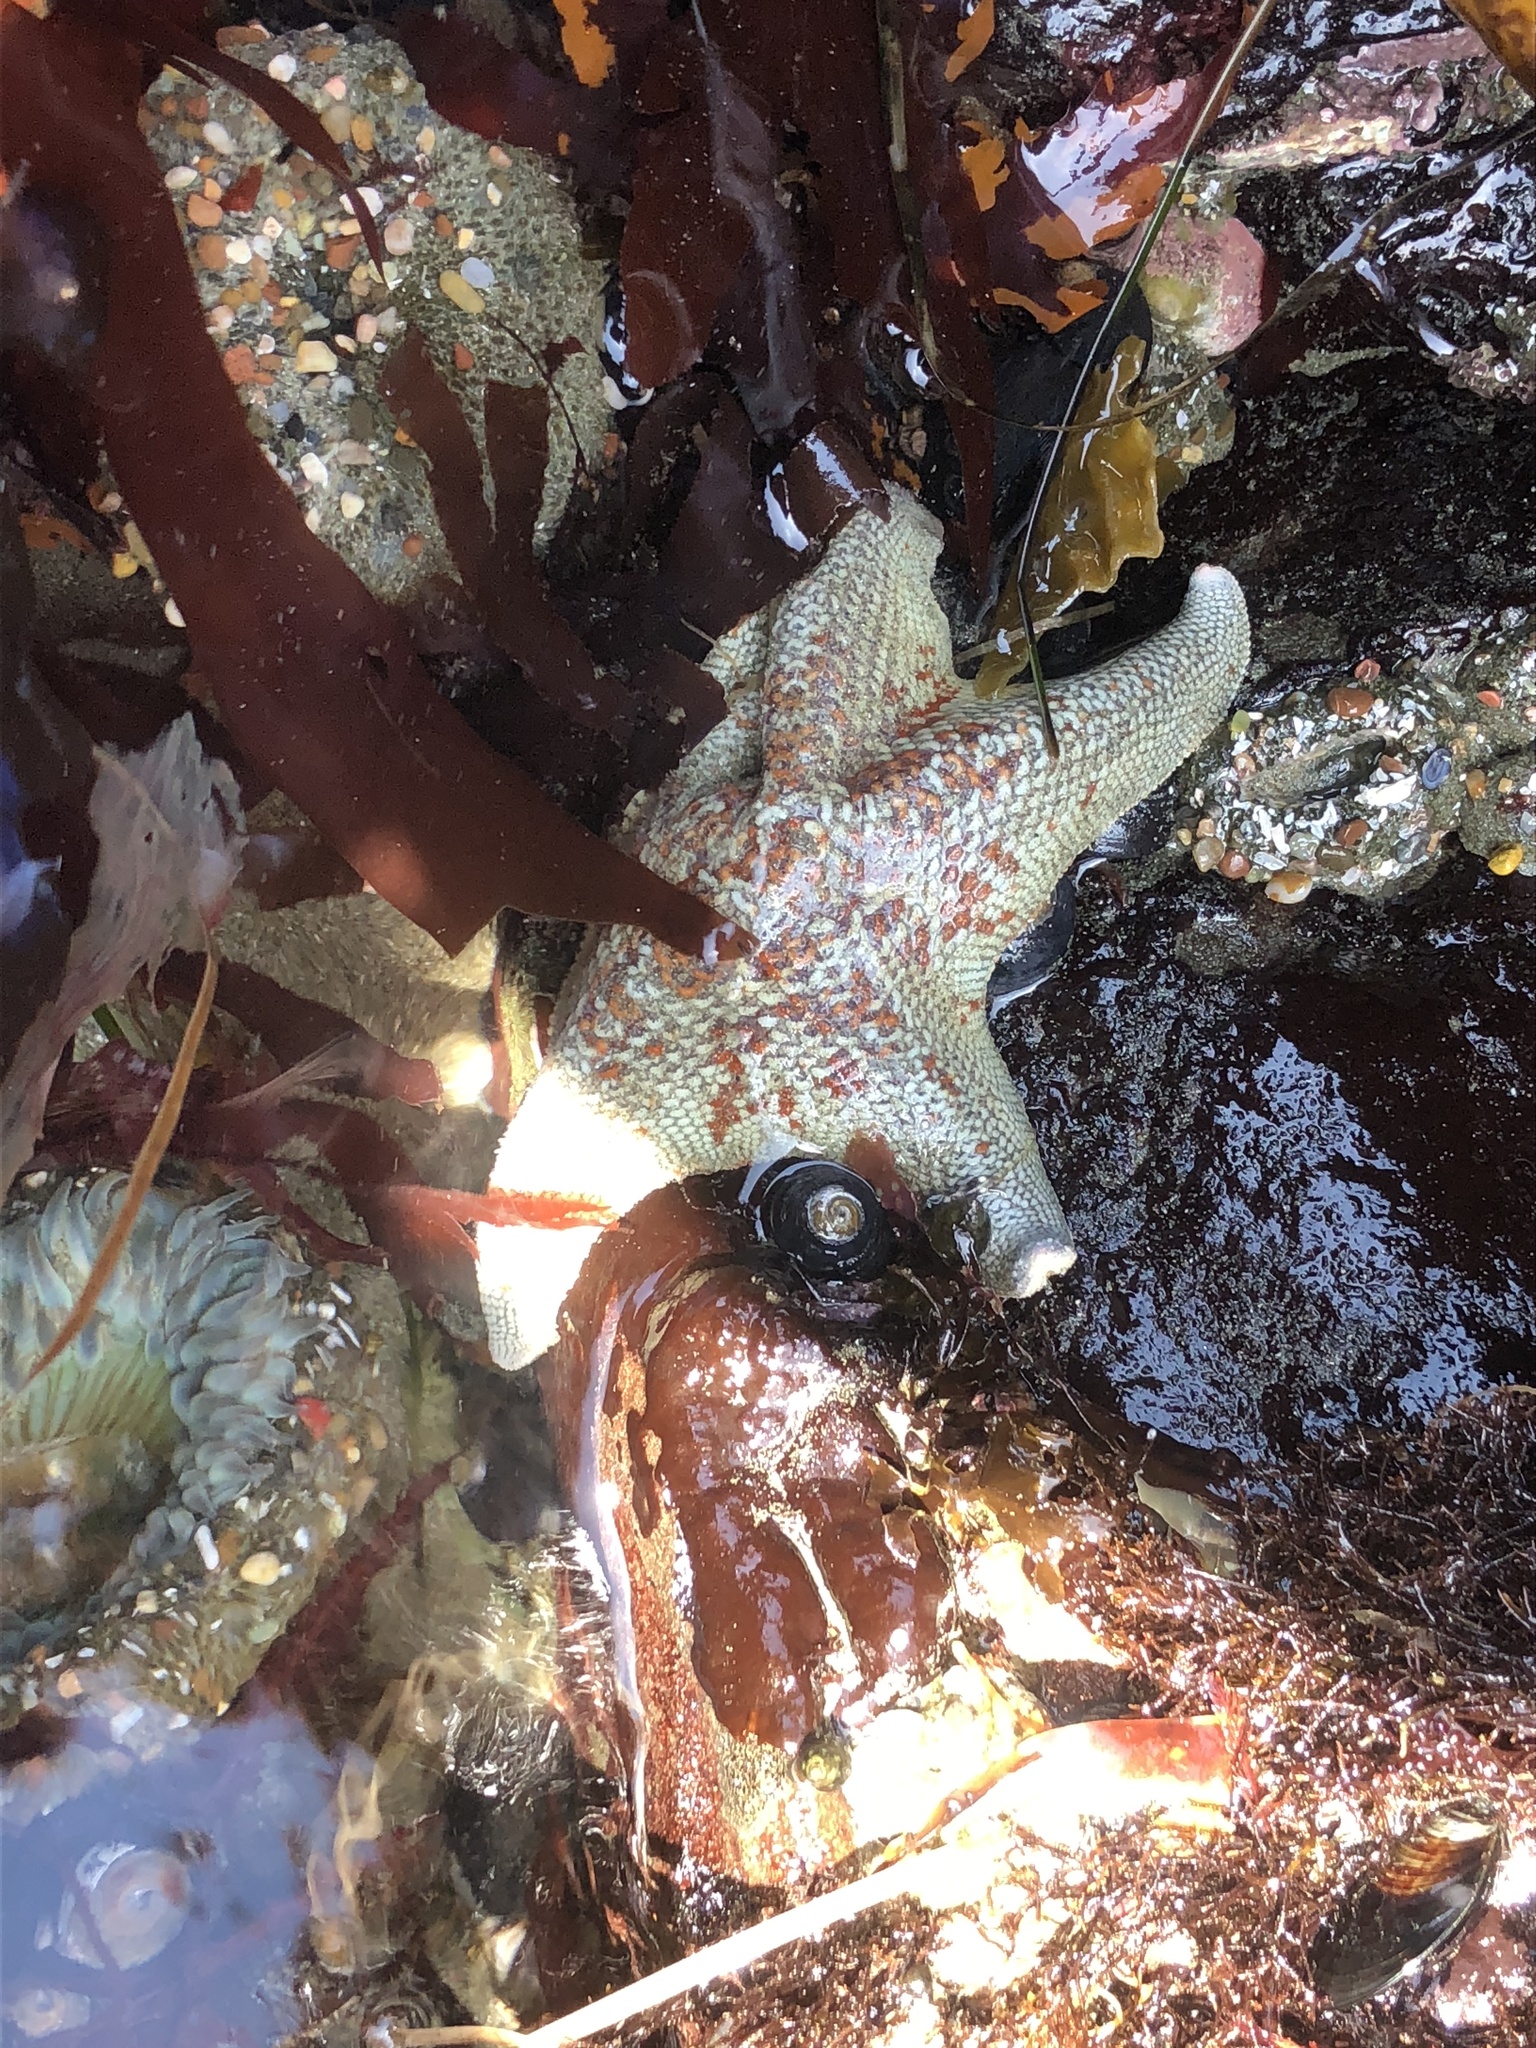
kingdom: Animalia
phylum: Echinodermata
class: Asteroidea
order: Valvatida
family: Asterinidae
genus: Patiria
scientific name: Patiria miniata
